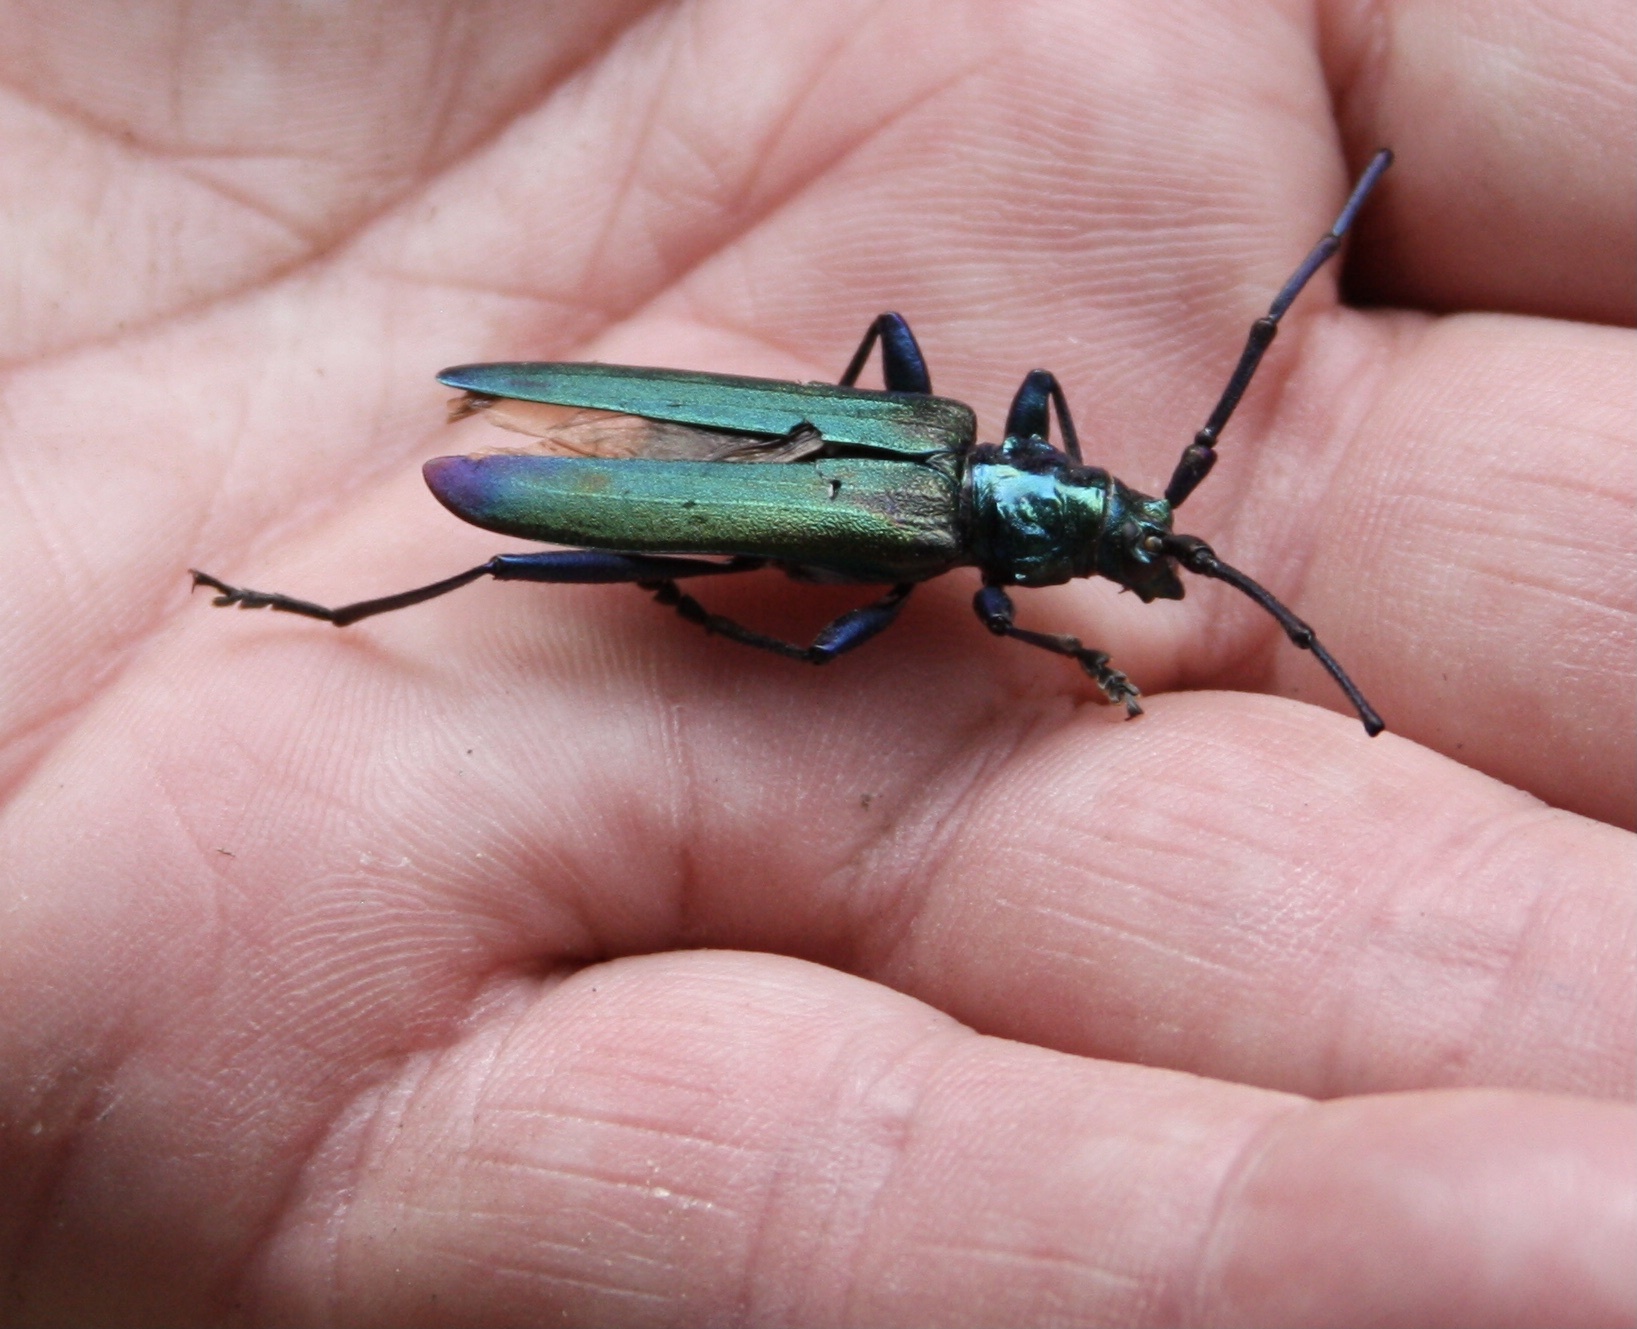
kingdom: Animalia
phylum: Arthropoda
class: Insecta
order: Coleoptera
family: Cerambycidae
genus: Aromia
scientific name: Aromia moschata
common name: Musk beetle
